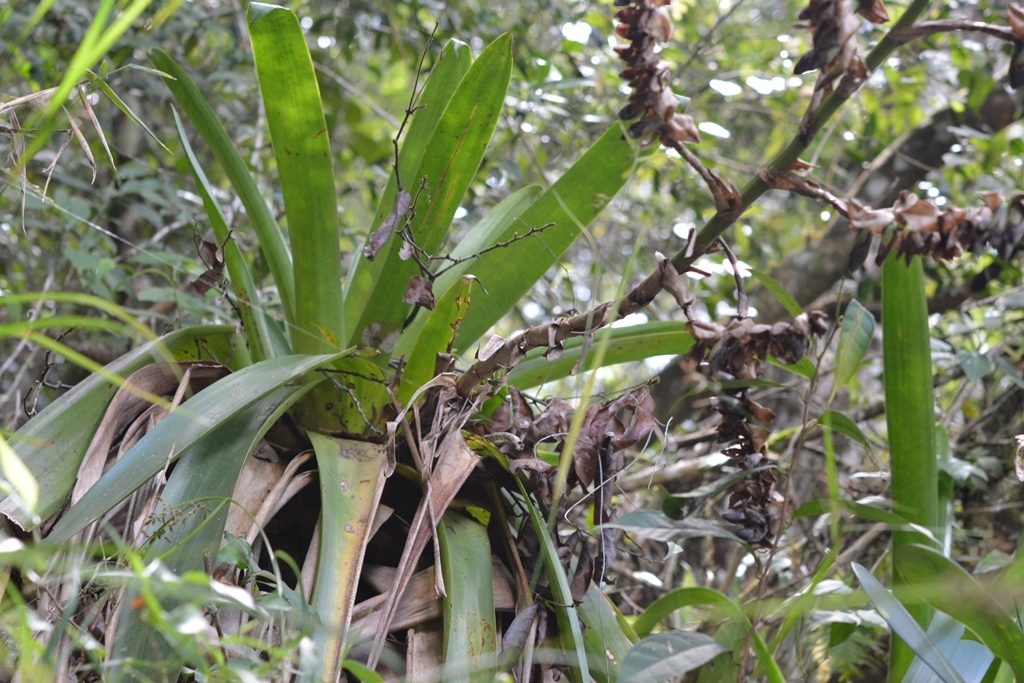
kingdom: Plantae
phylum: Tracheophyta
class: Liliopsida
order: Poales
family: Bromeliaceae
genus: Werauhia
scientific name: Werauhia werckleana
